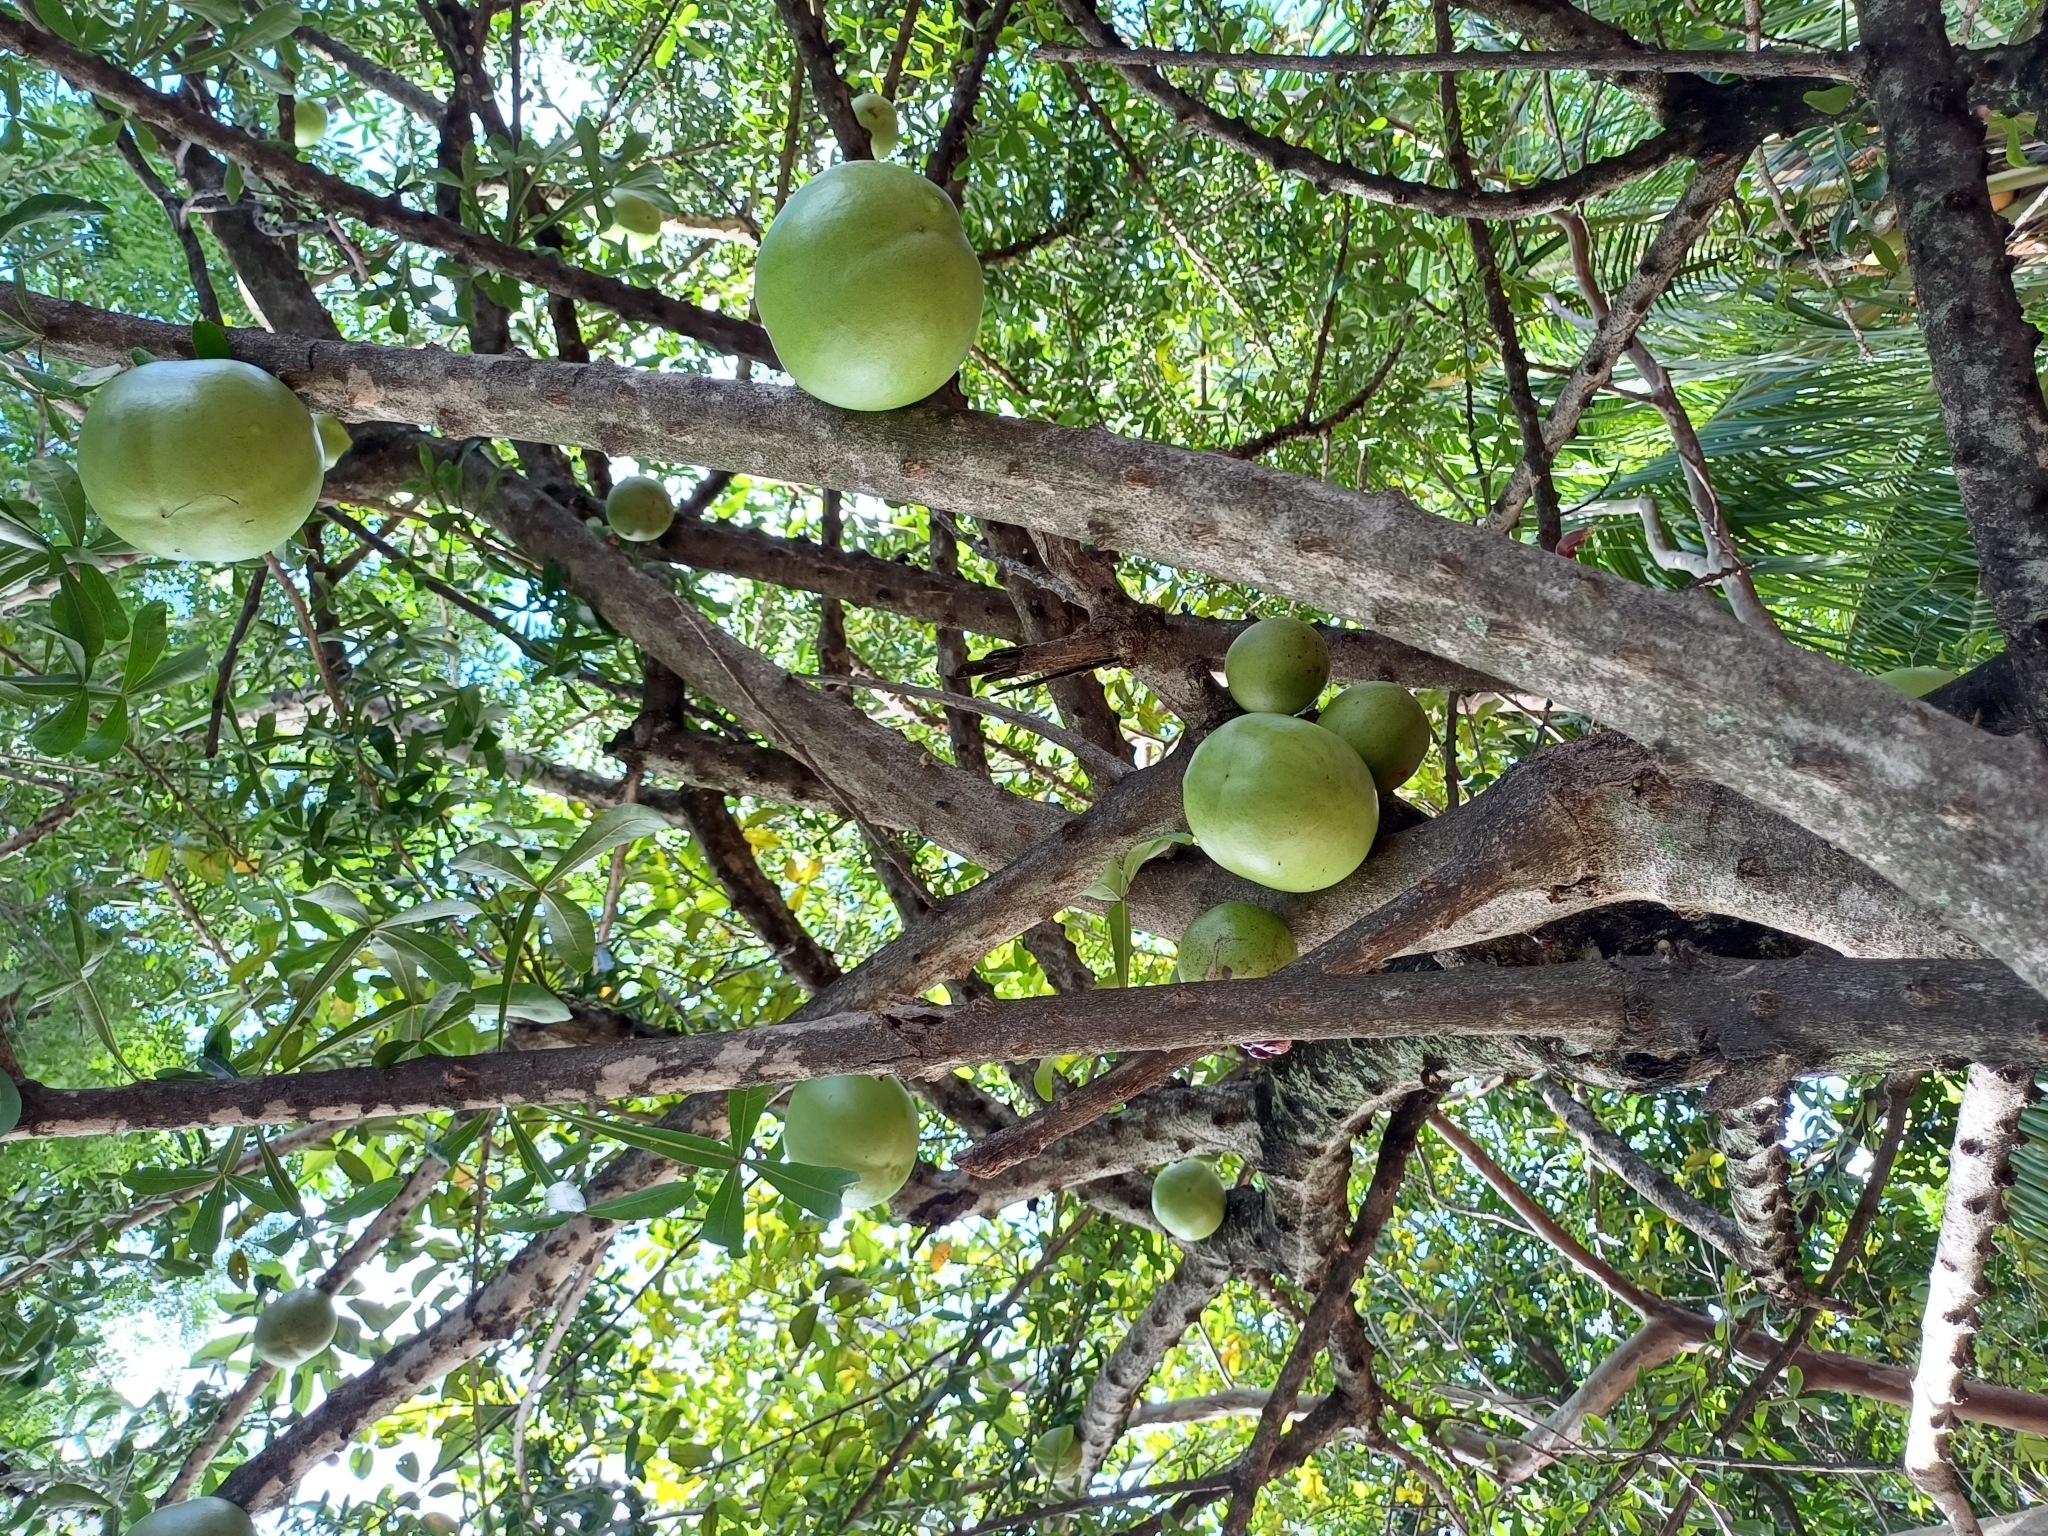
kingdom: Plantae
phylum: Tracheophyta
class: Magnoliopsida
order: Lamiales
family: Bignoniaceae
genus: Crescentia
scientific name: Crescentia alata
